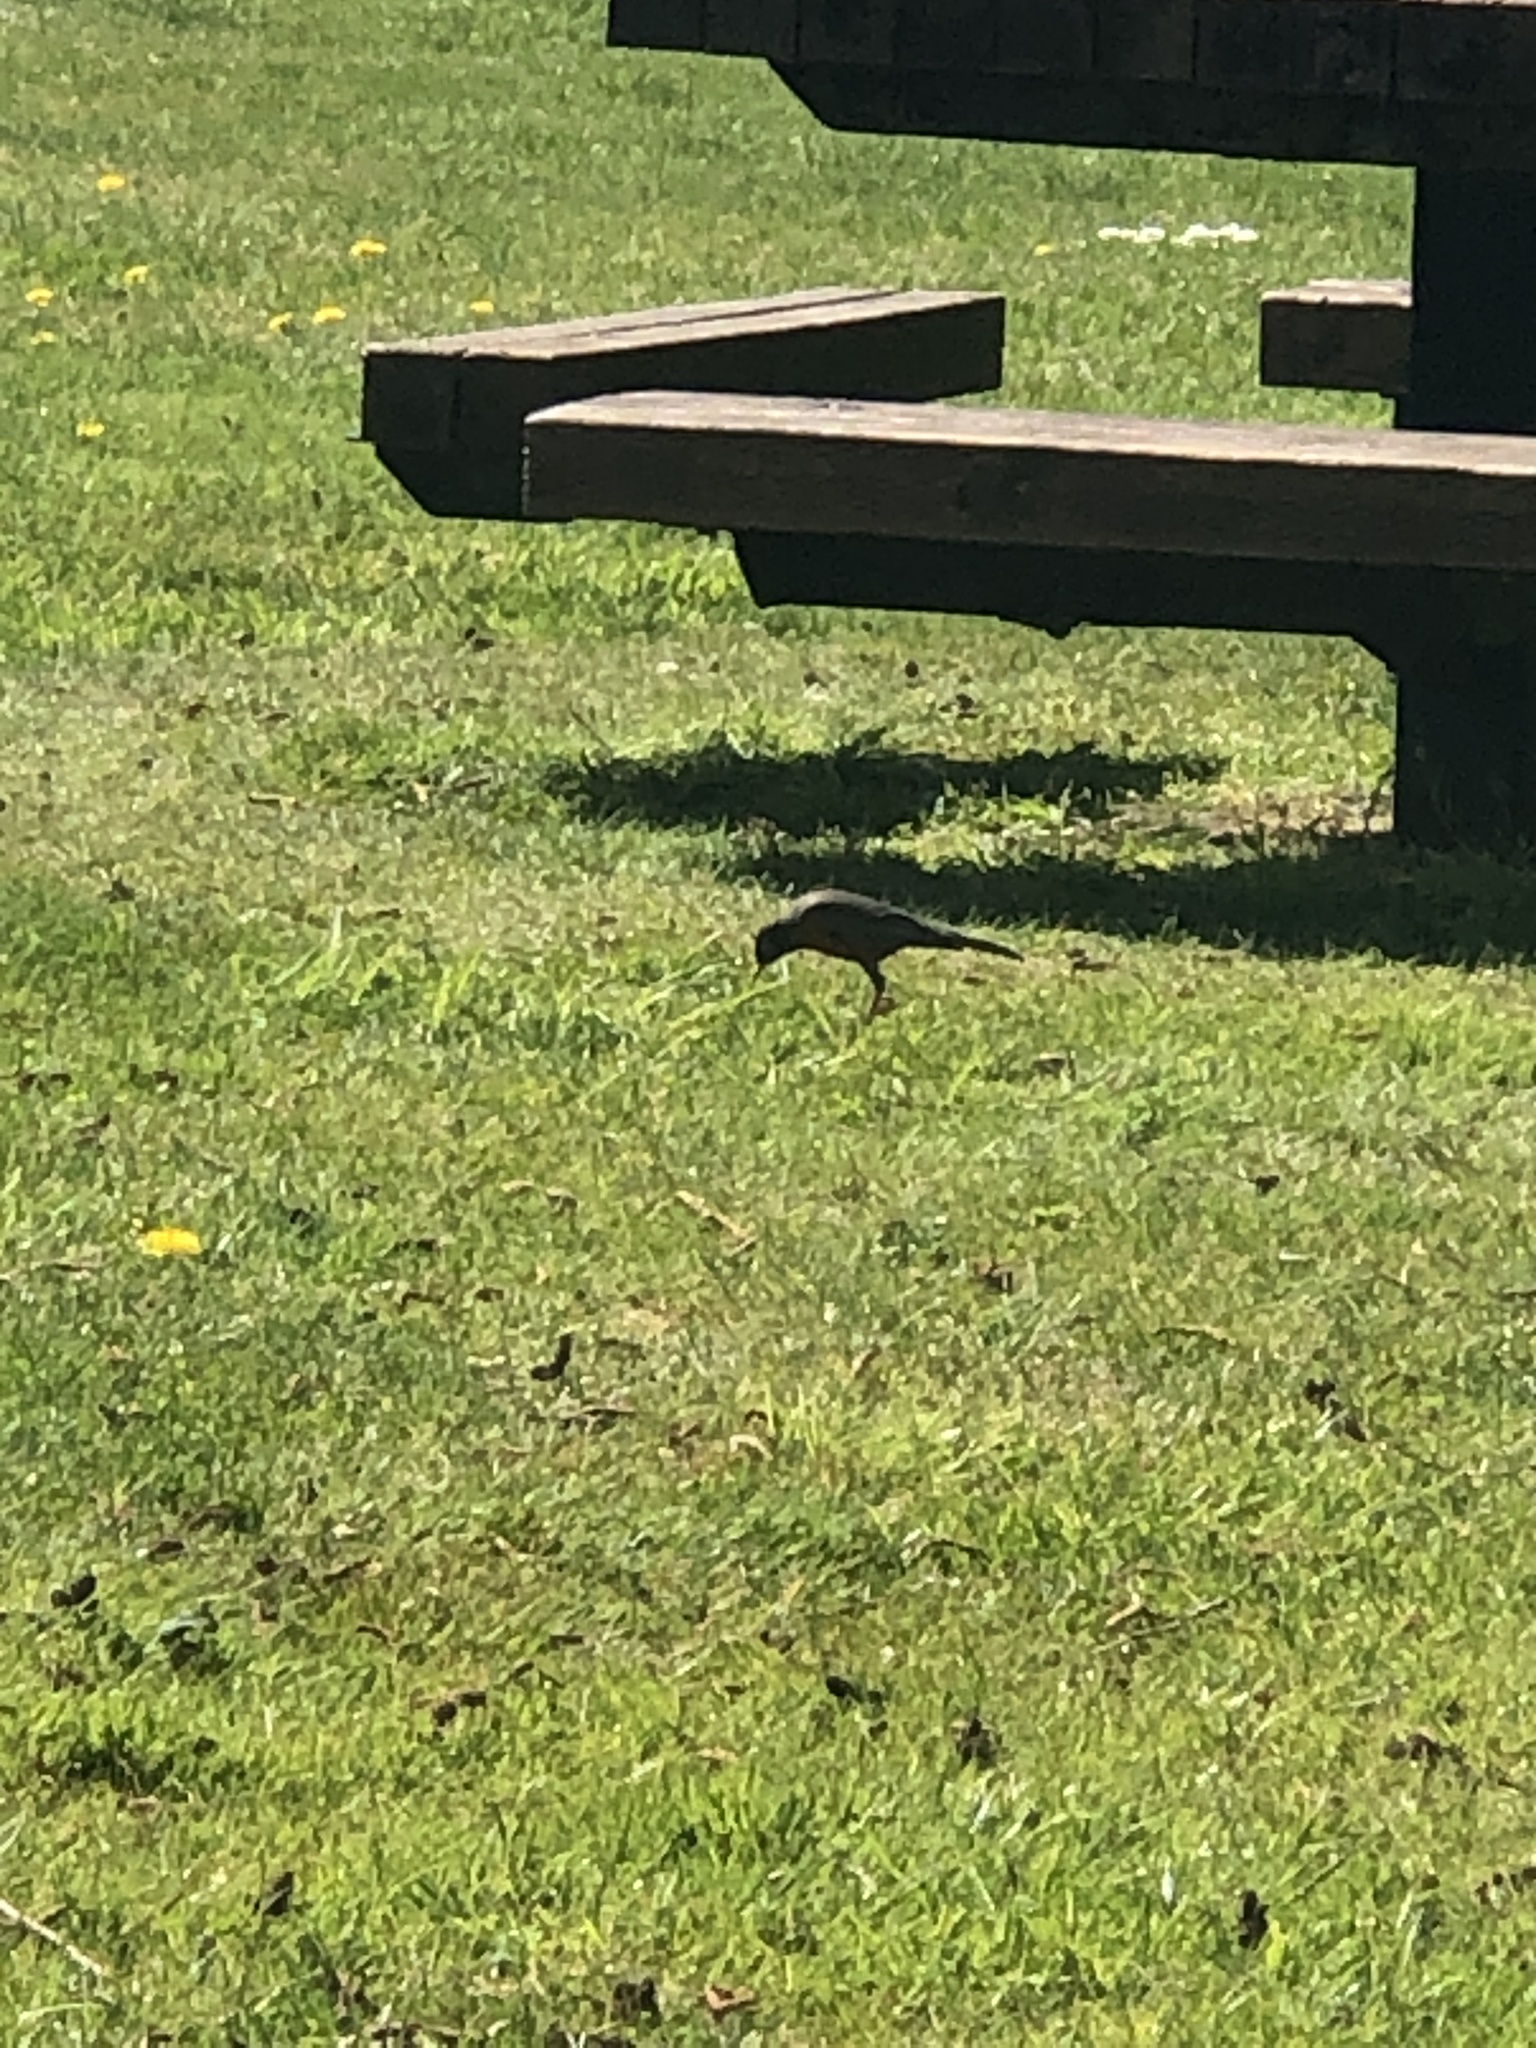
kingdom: Animalia
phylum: Chordata
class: Aves
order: Passeriformes
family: Turdidae
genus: Turdus
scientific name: Turdus migratorius
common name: American robin
